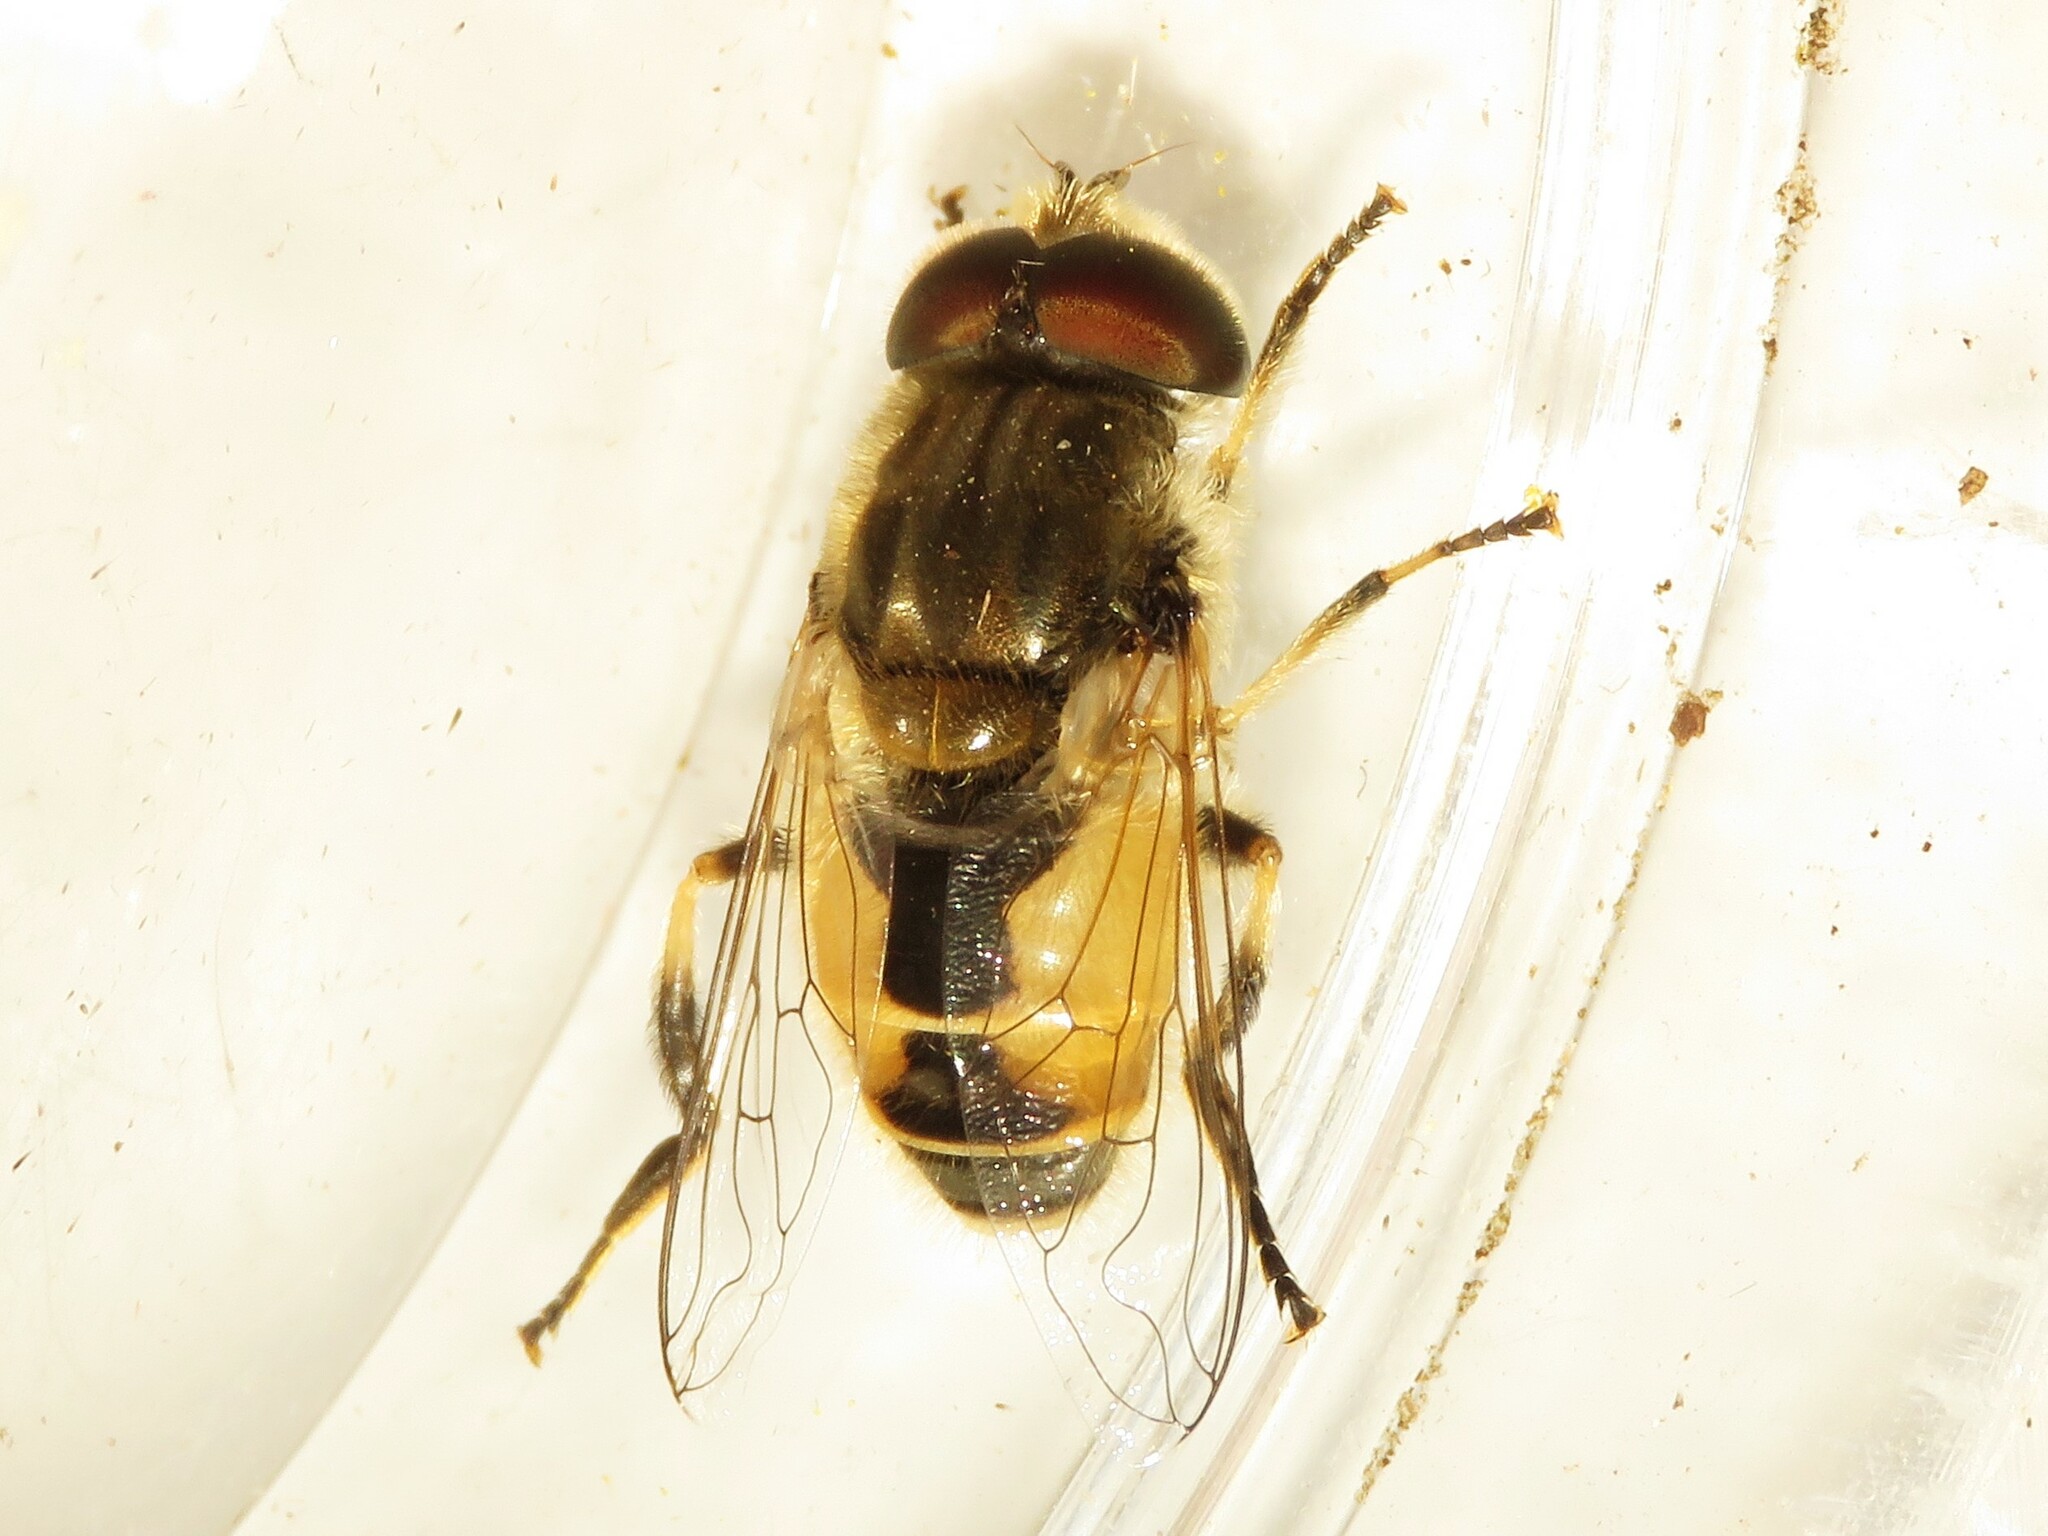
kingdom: Animalia
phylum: Arthropoda
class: Insecta
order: Diptera
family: Syrphidae
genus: Eristalis
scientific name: Eristalis arbustorum
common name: Hover fly
